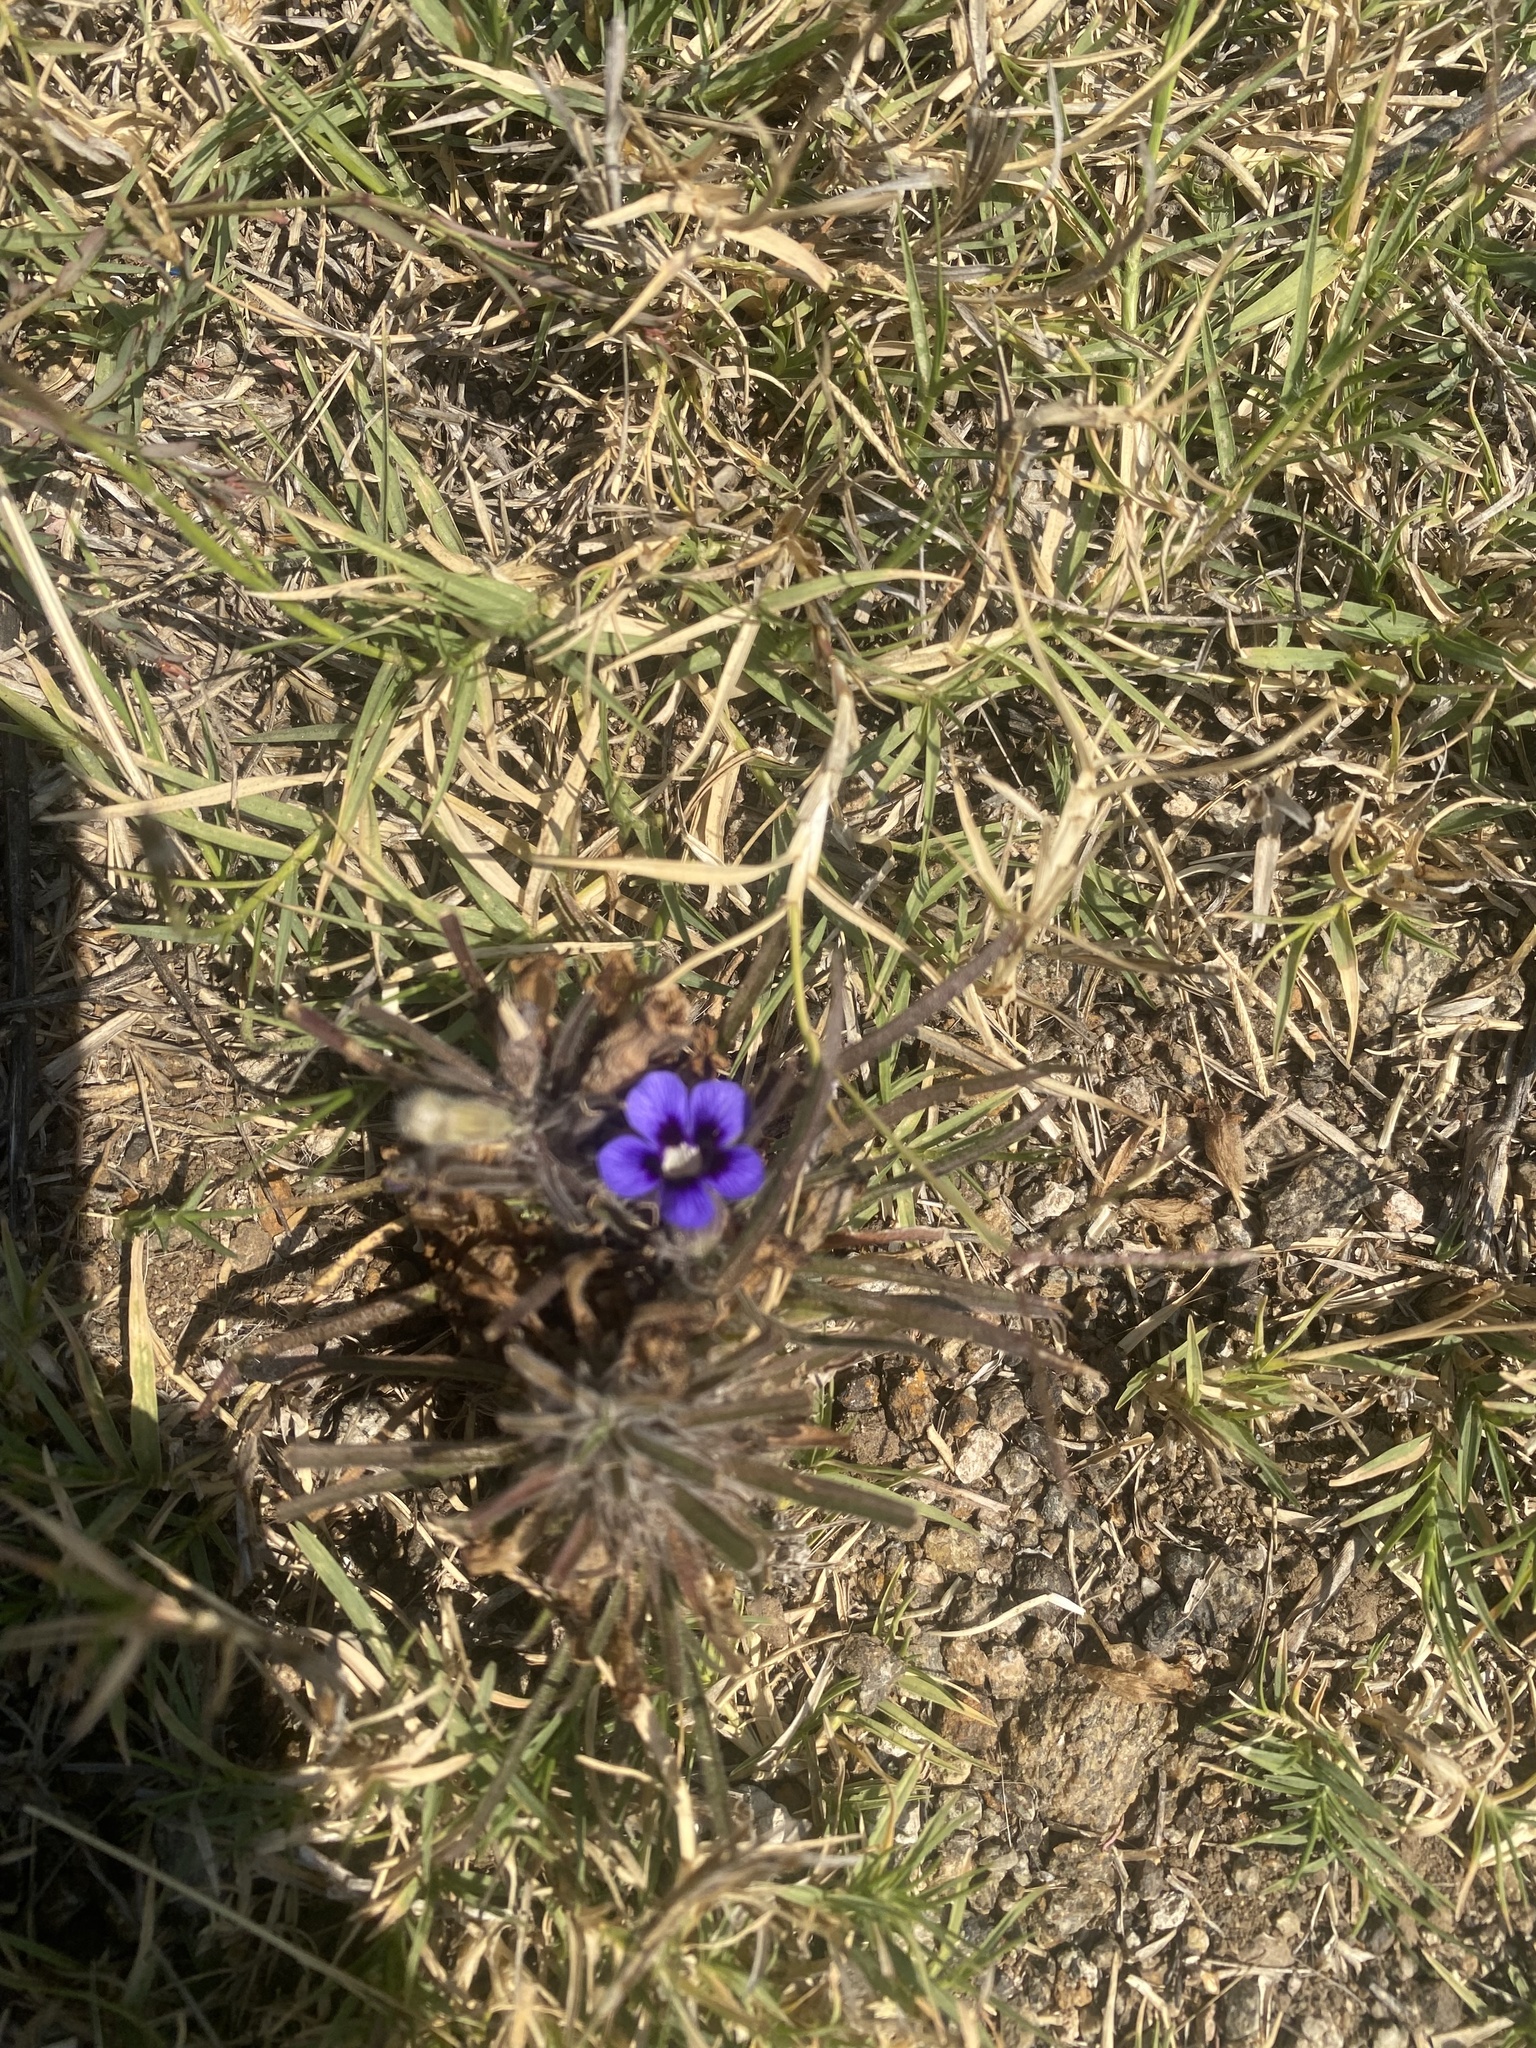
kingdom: Plantae
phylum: Tracheophyta
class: Magnoliopsida
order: Lamiales
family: Scrophulariaceae
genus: Aptosimum
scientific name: Aptosimum lineare
